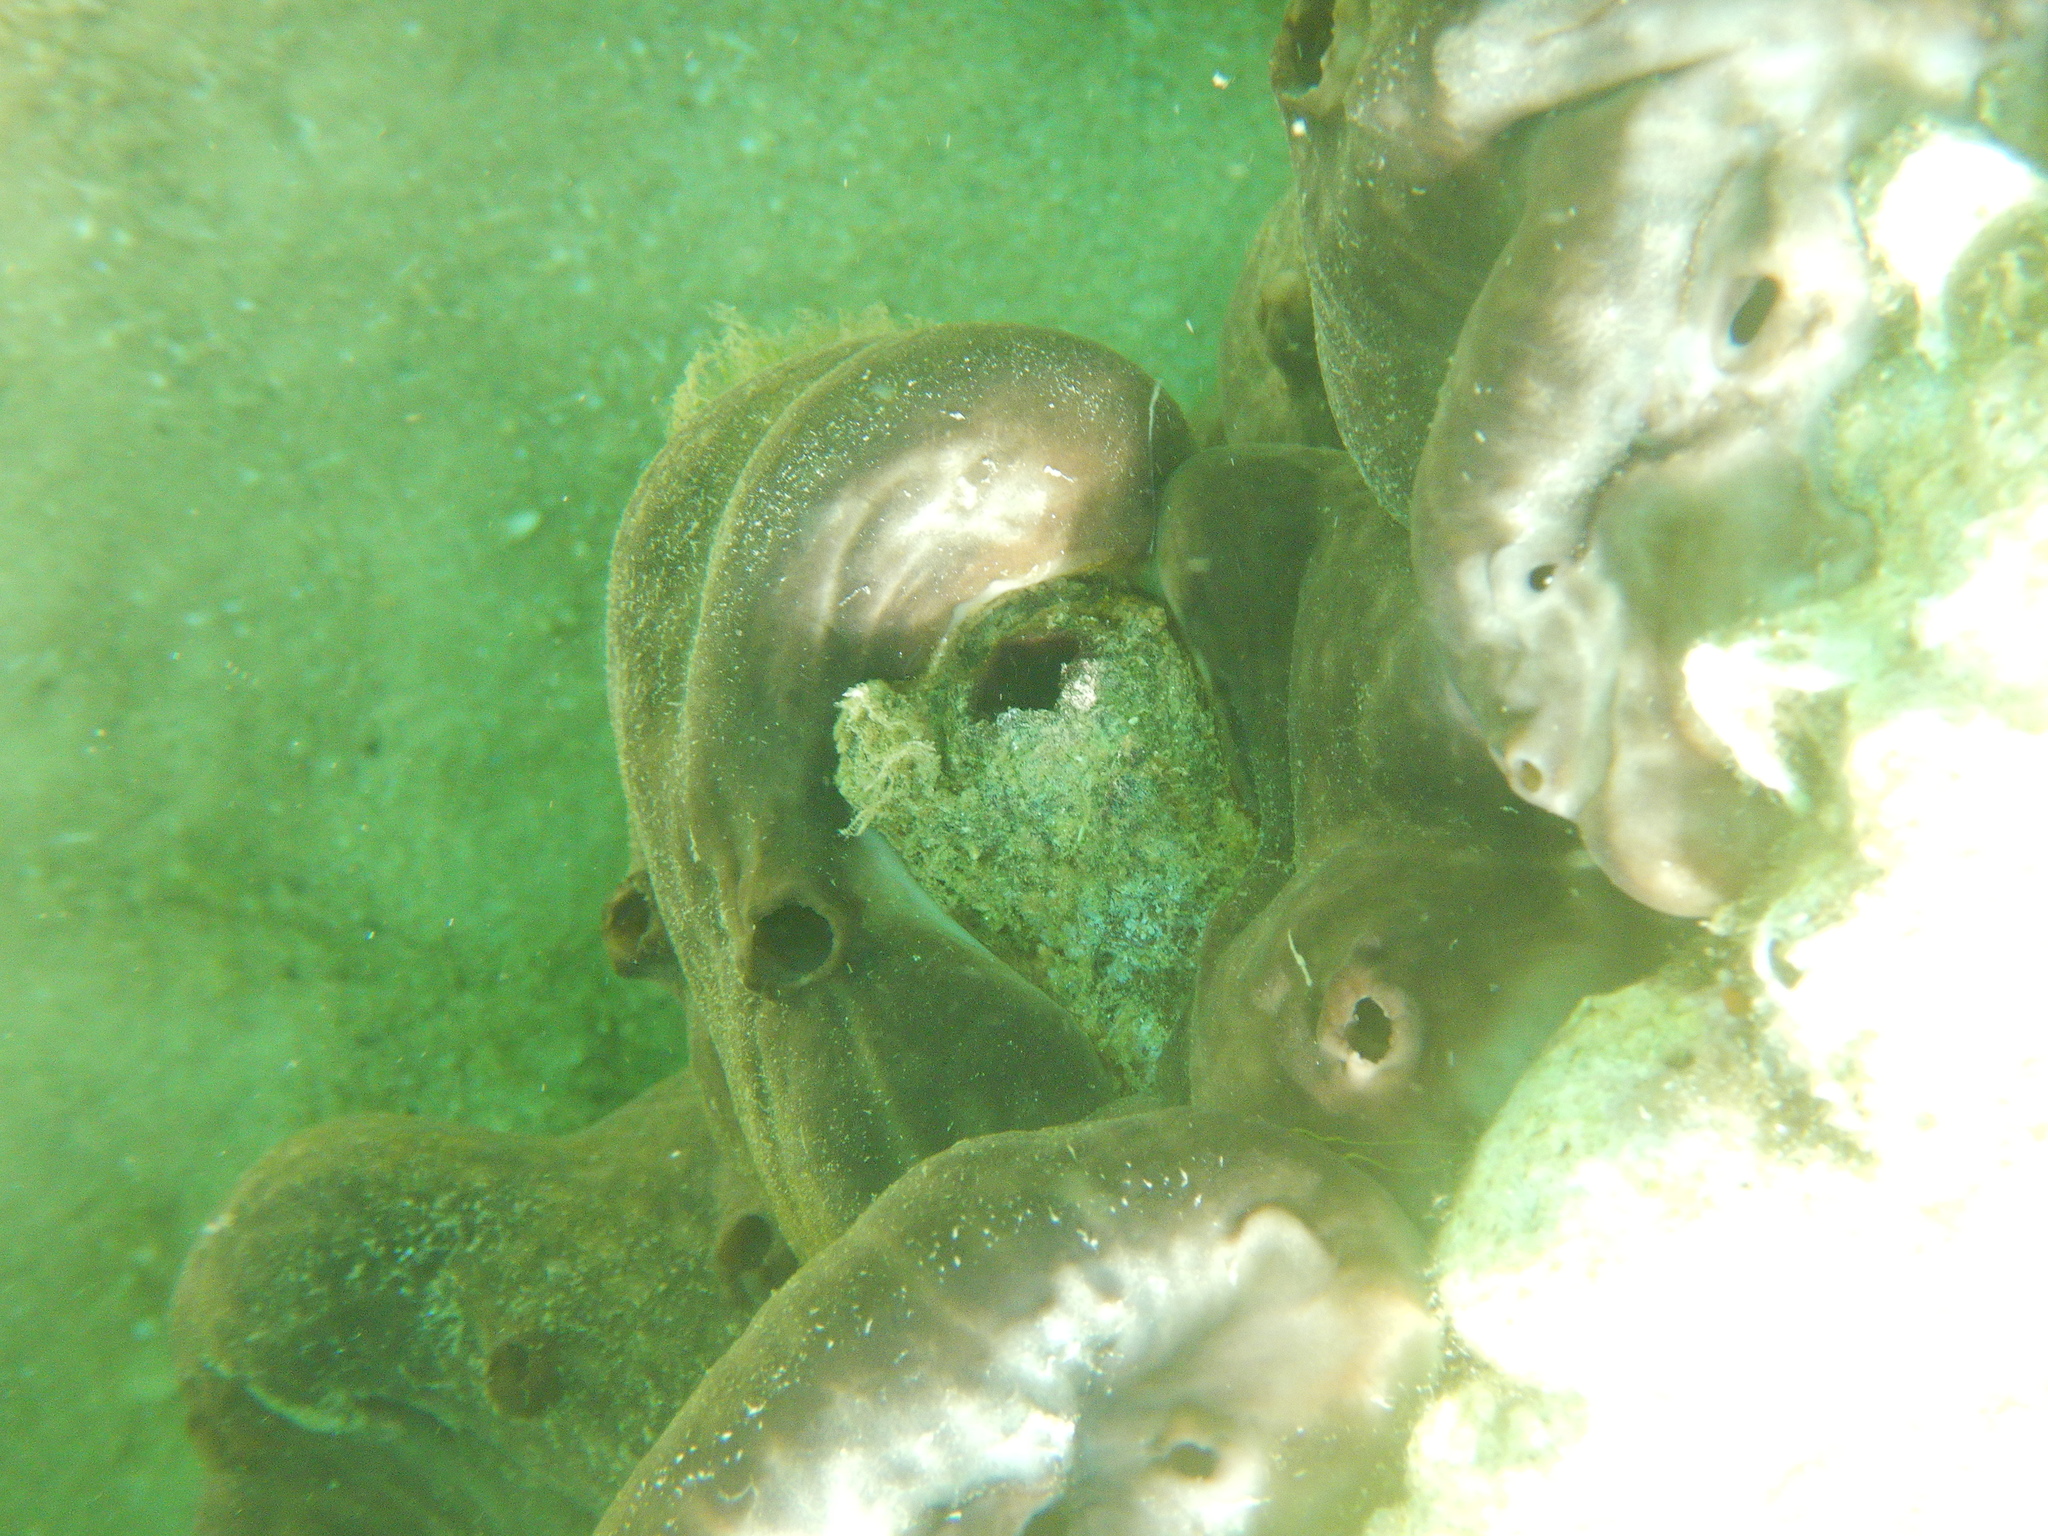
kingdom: Animalia
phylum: Porifera
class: Demospongiae
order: Chondrosiida
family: Chondrosiidae
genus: Chondrosia
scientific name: Chondrosia reniformis
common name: Chicken liver sponge
